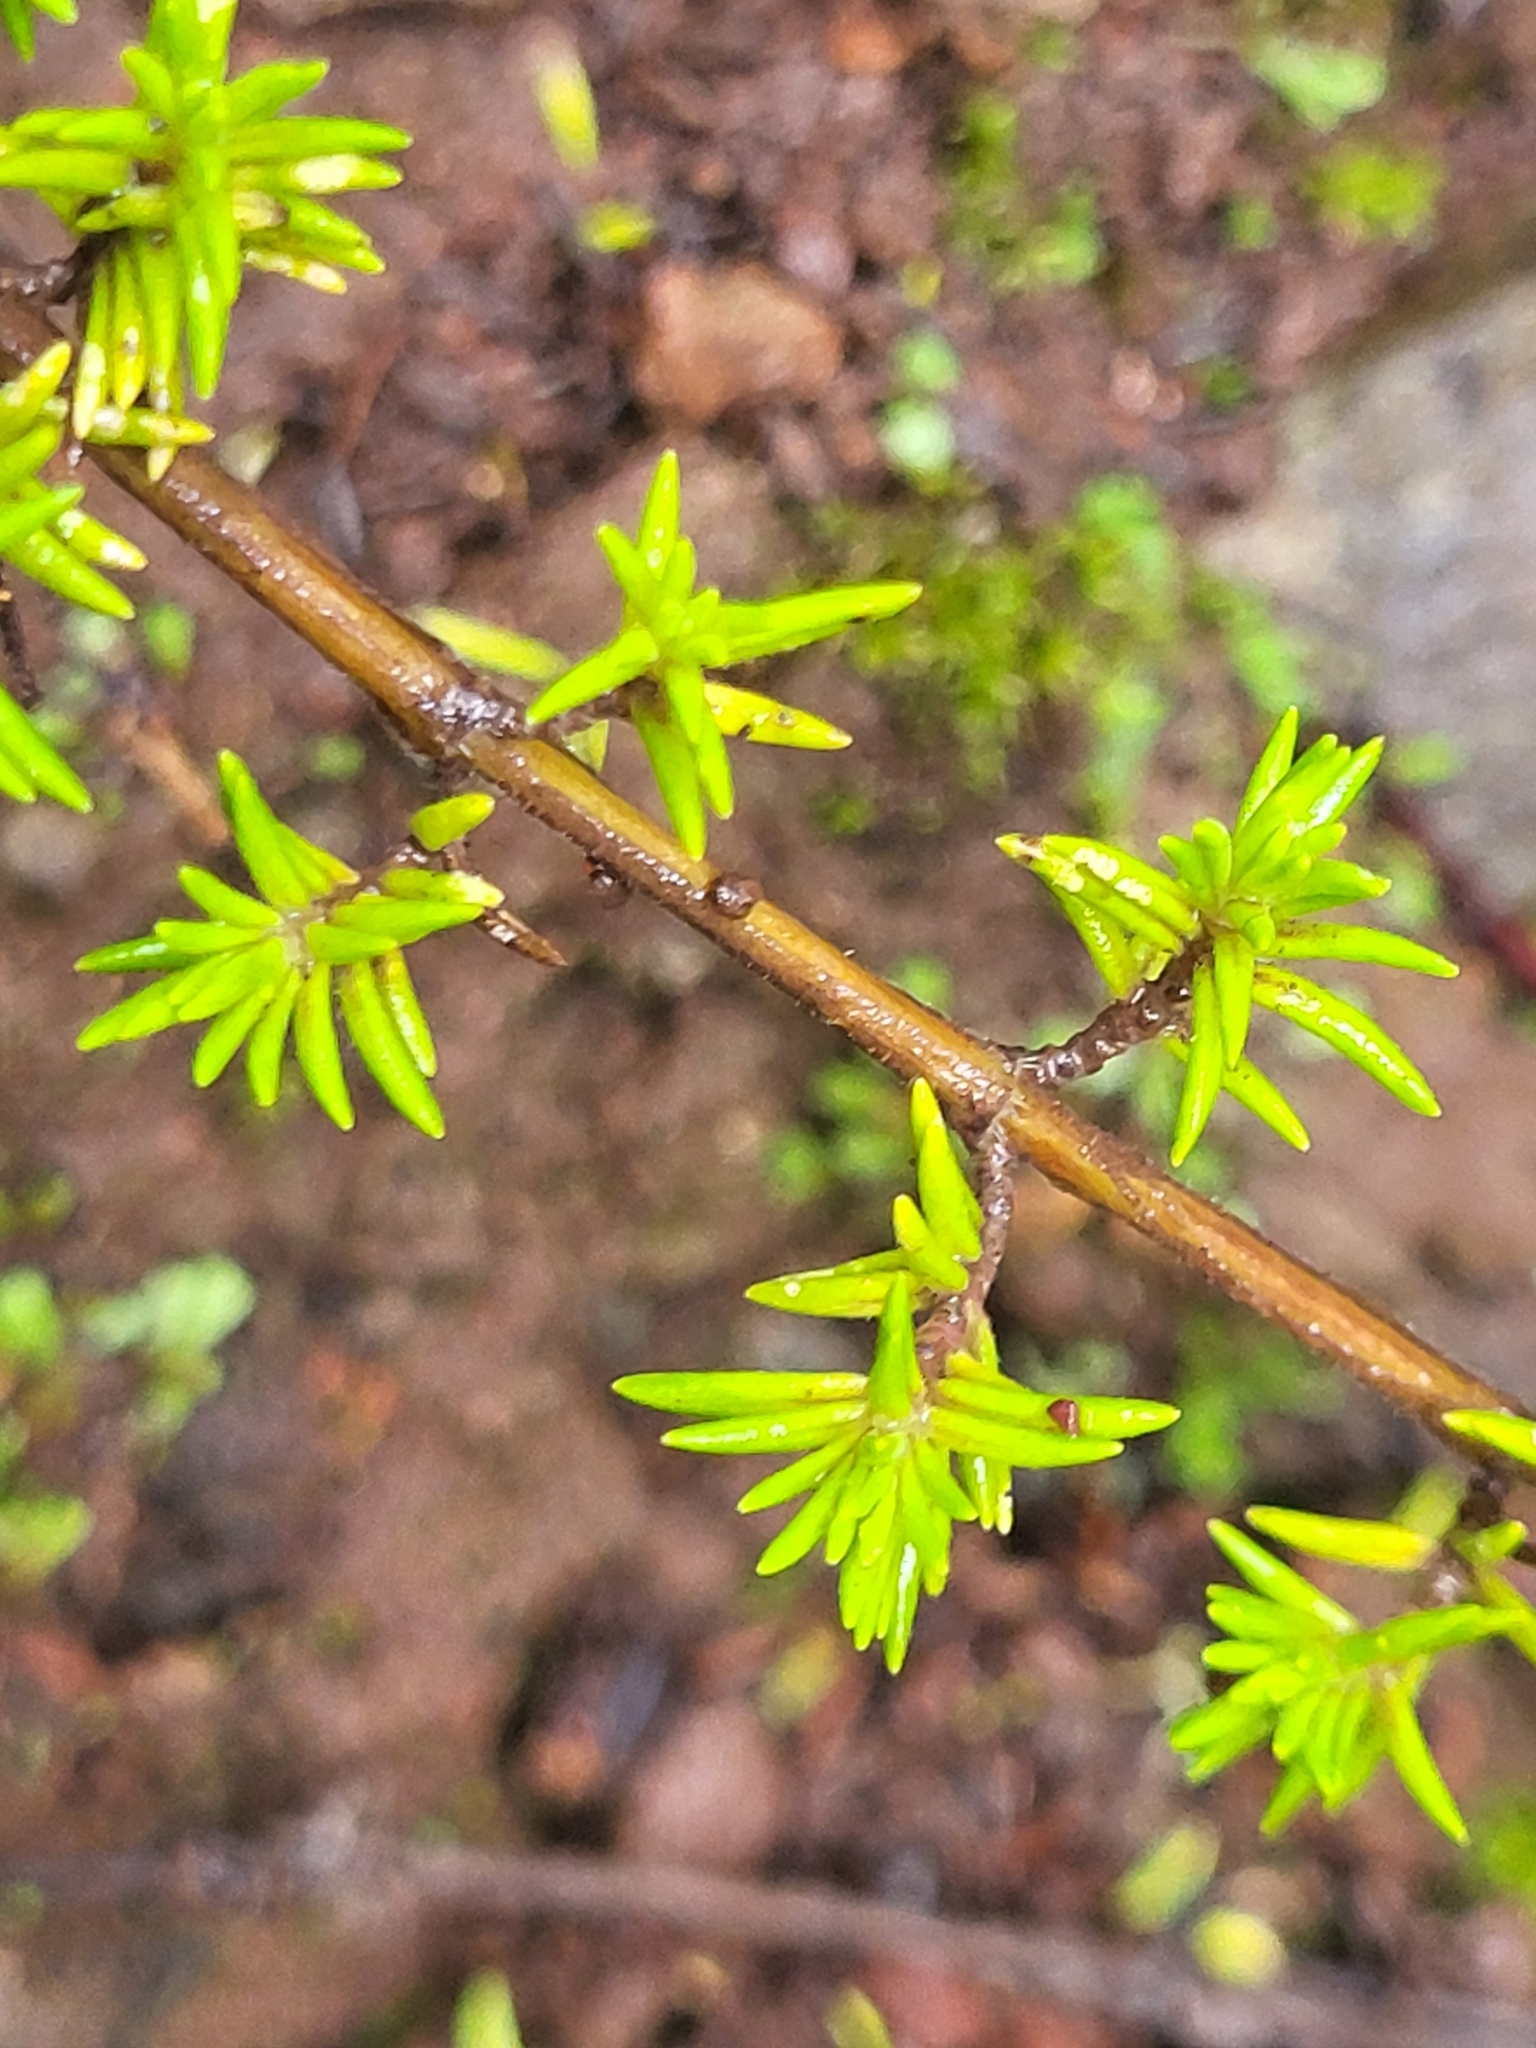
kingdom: Plantae
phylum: Tracheophyta
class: Magnoliopsida
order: Lamiales
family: Lamiaceae
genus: Micromeria
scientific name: Micromeria gomerensis
